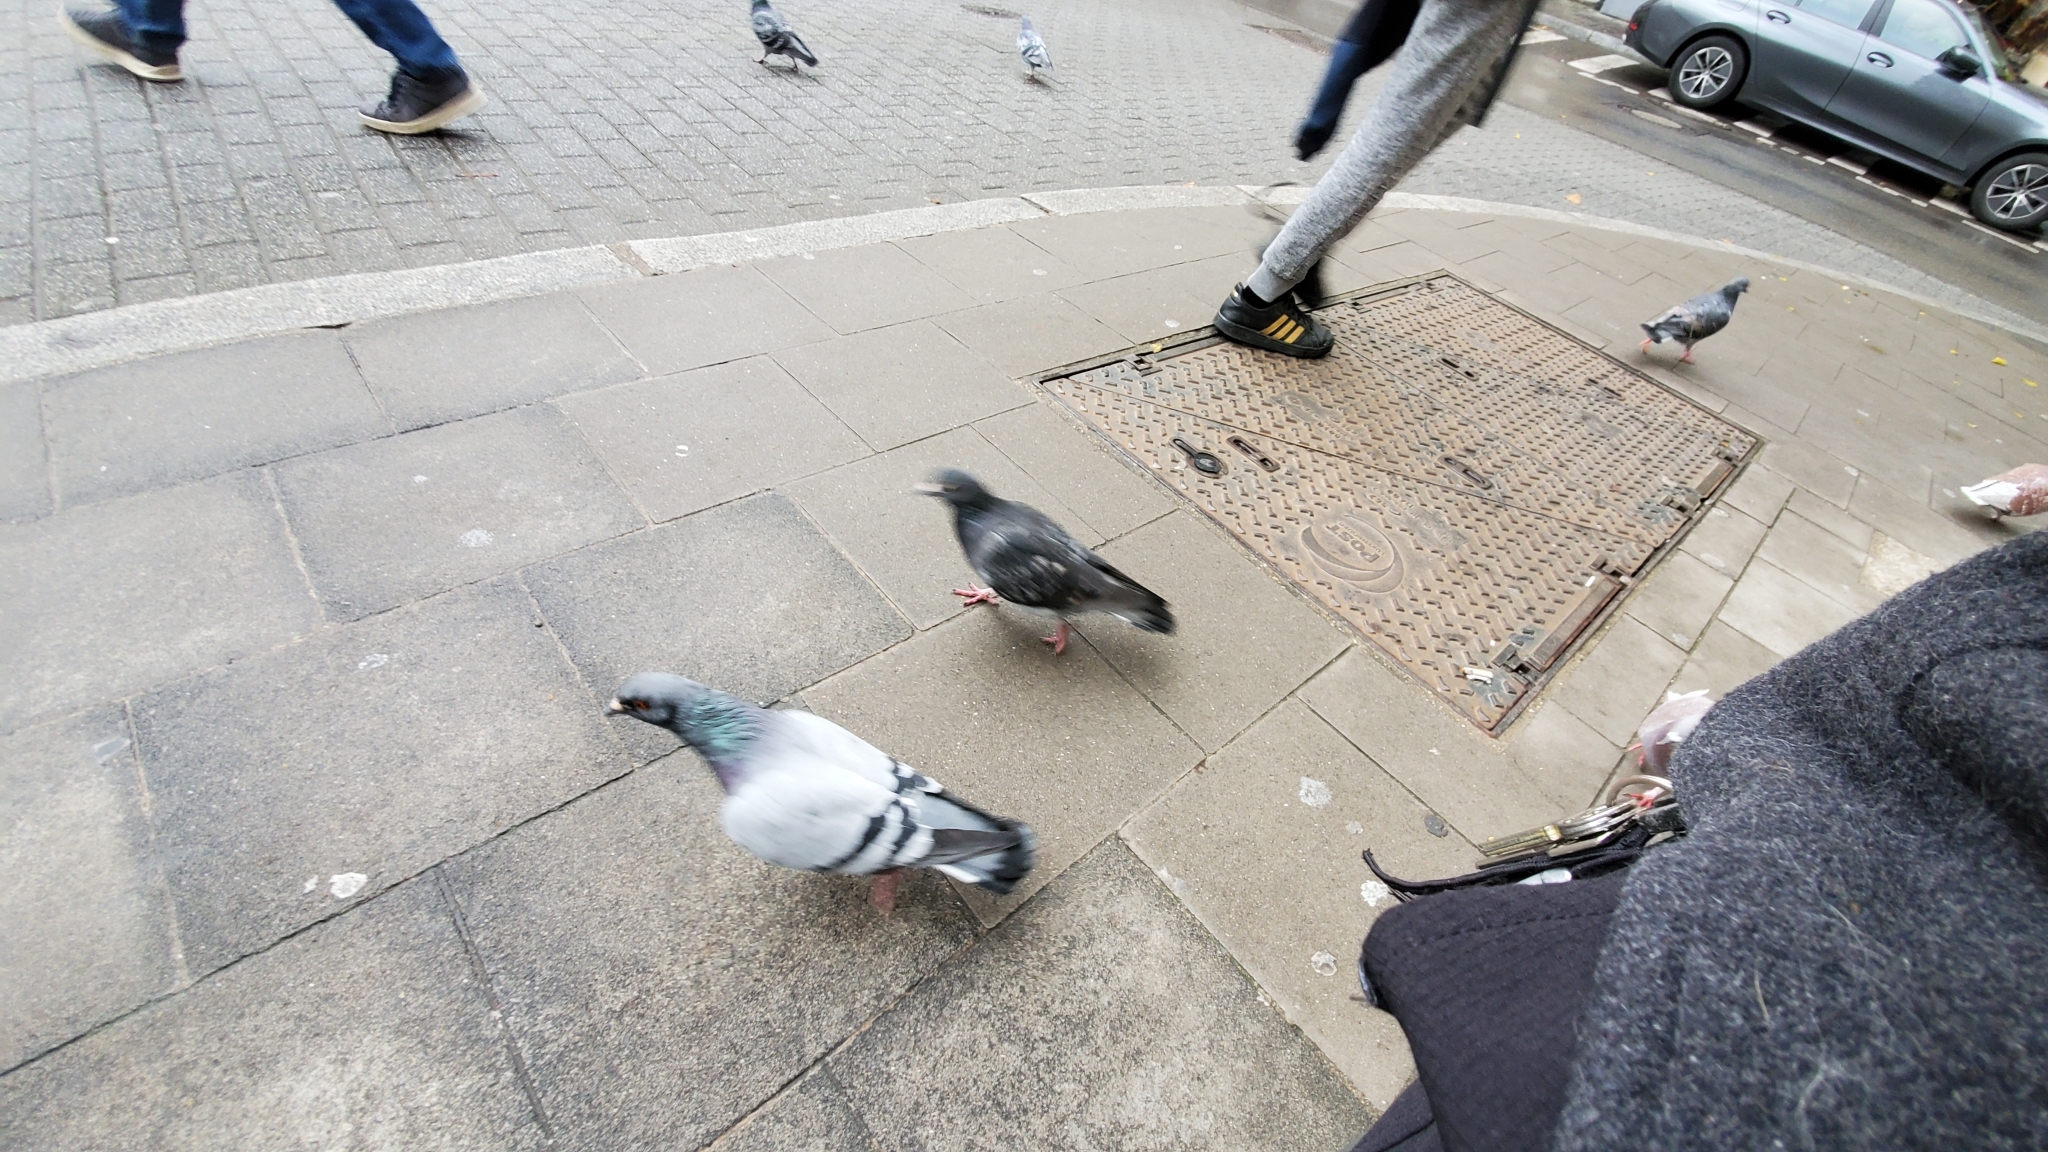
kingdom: Animalia
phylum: Chordata
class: Aves
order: Columbiformes
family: Columbidae
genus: Columba
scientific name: Columba livia
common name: Rock pigeon
